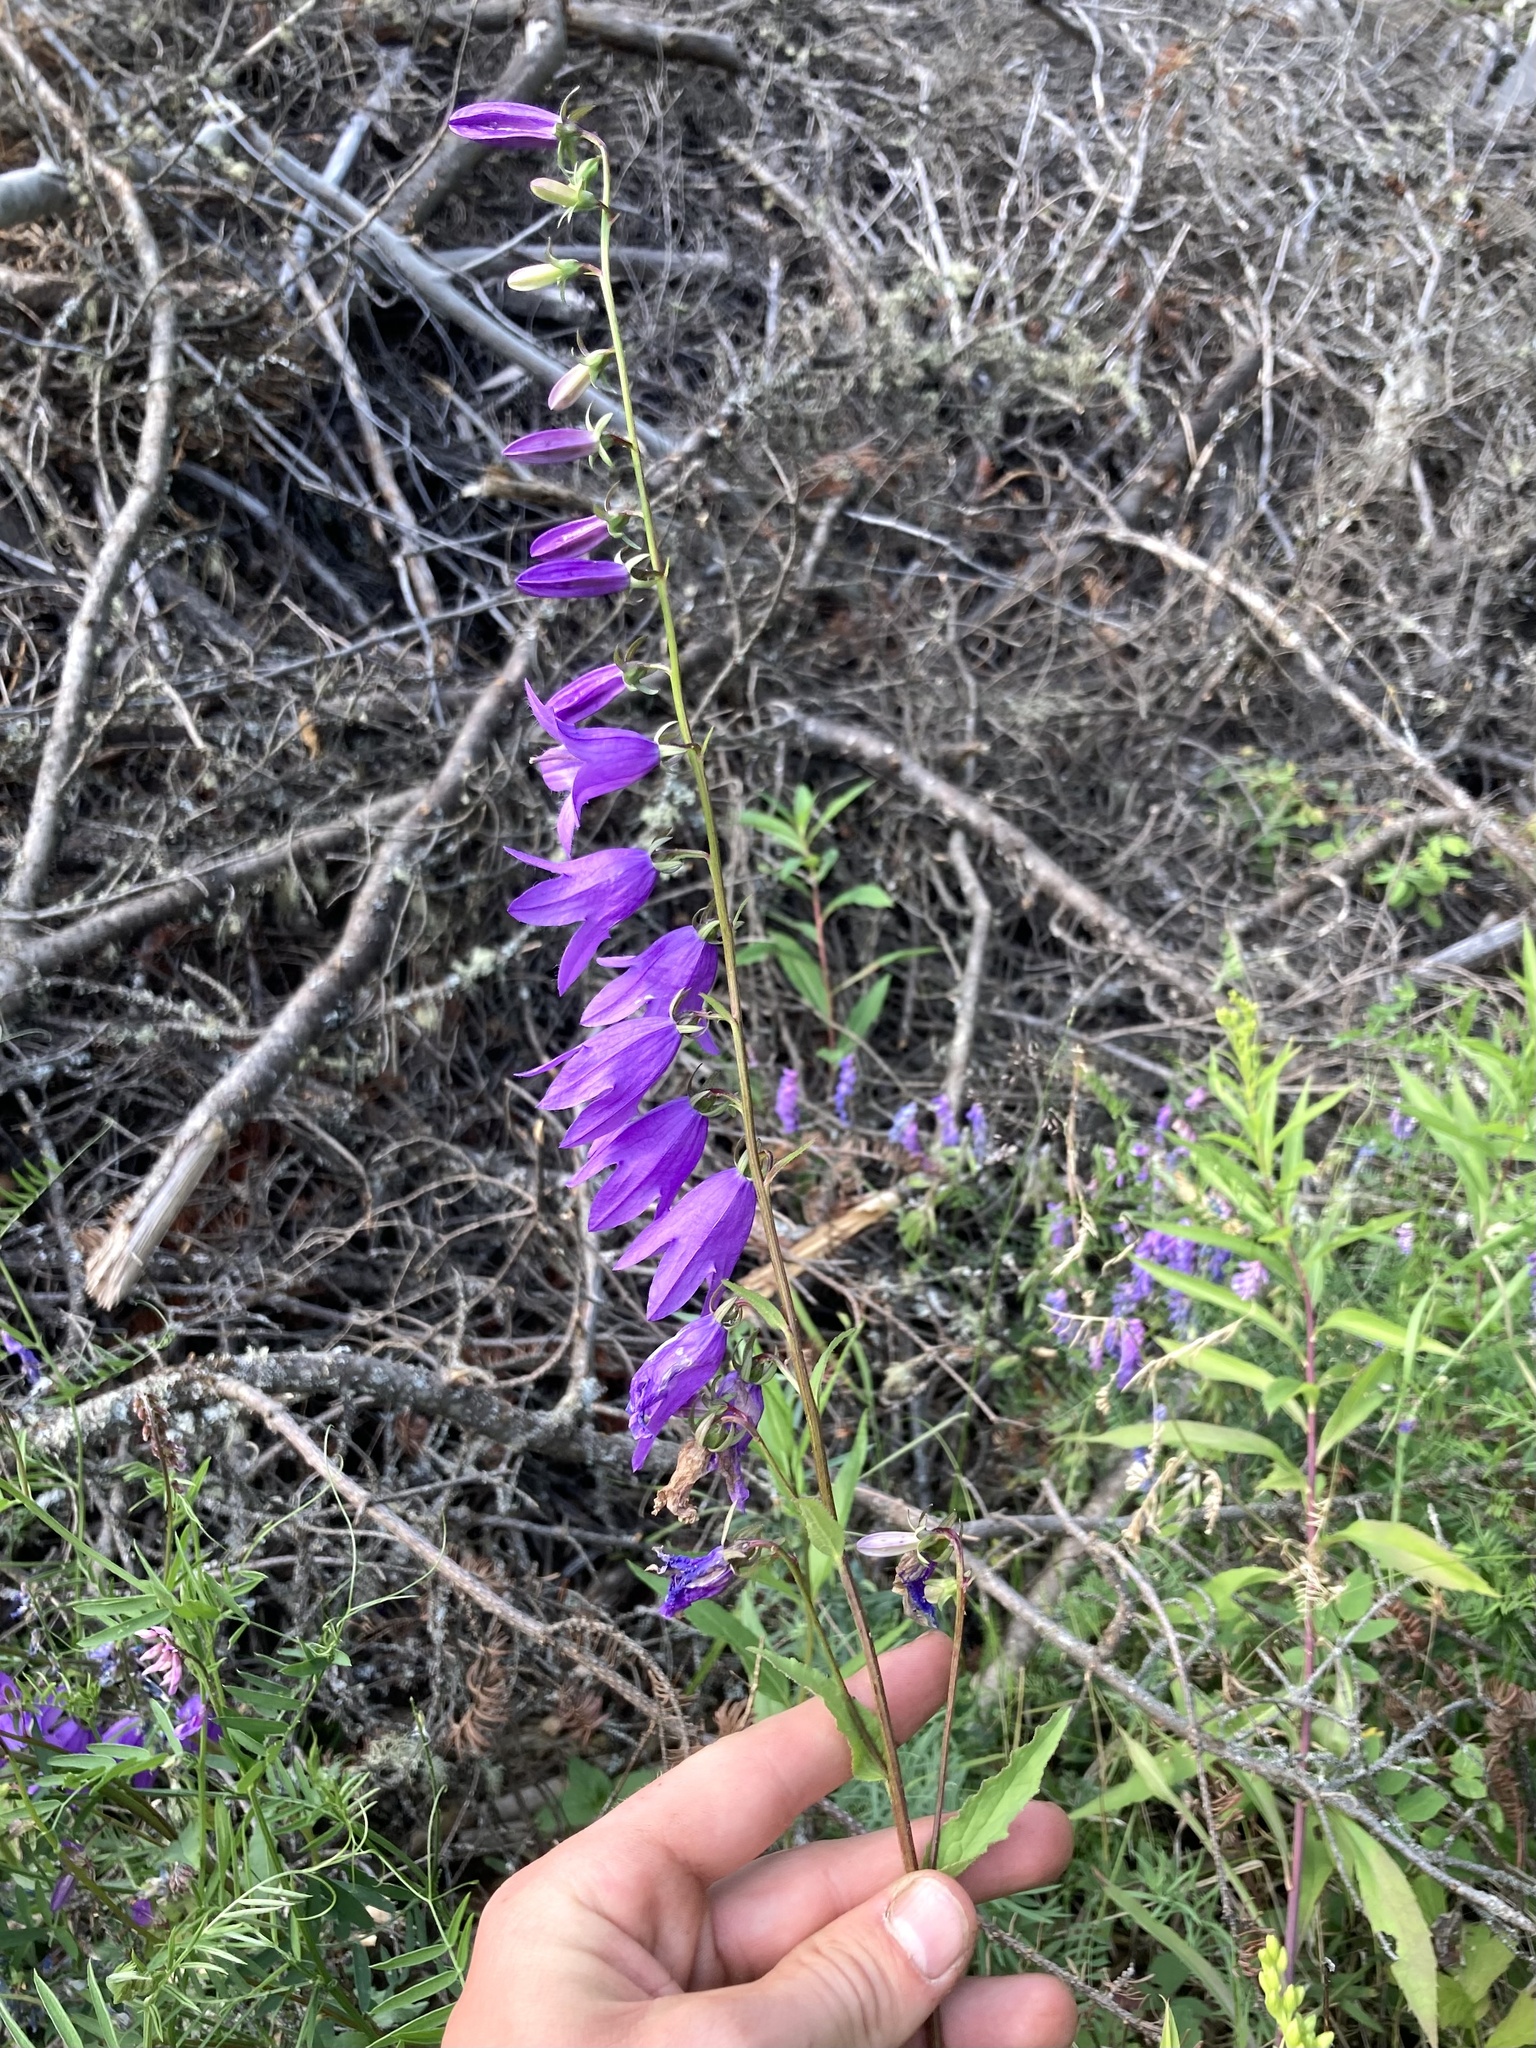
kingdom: Plantae
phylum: Tracheophyta
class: Magnoliopsida
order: Asterales
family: Campanulaceae
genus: Campanula
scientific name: Campanula rapunculoides
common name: Creeping bellflower
